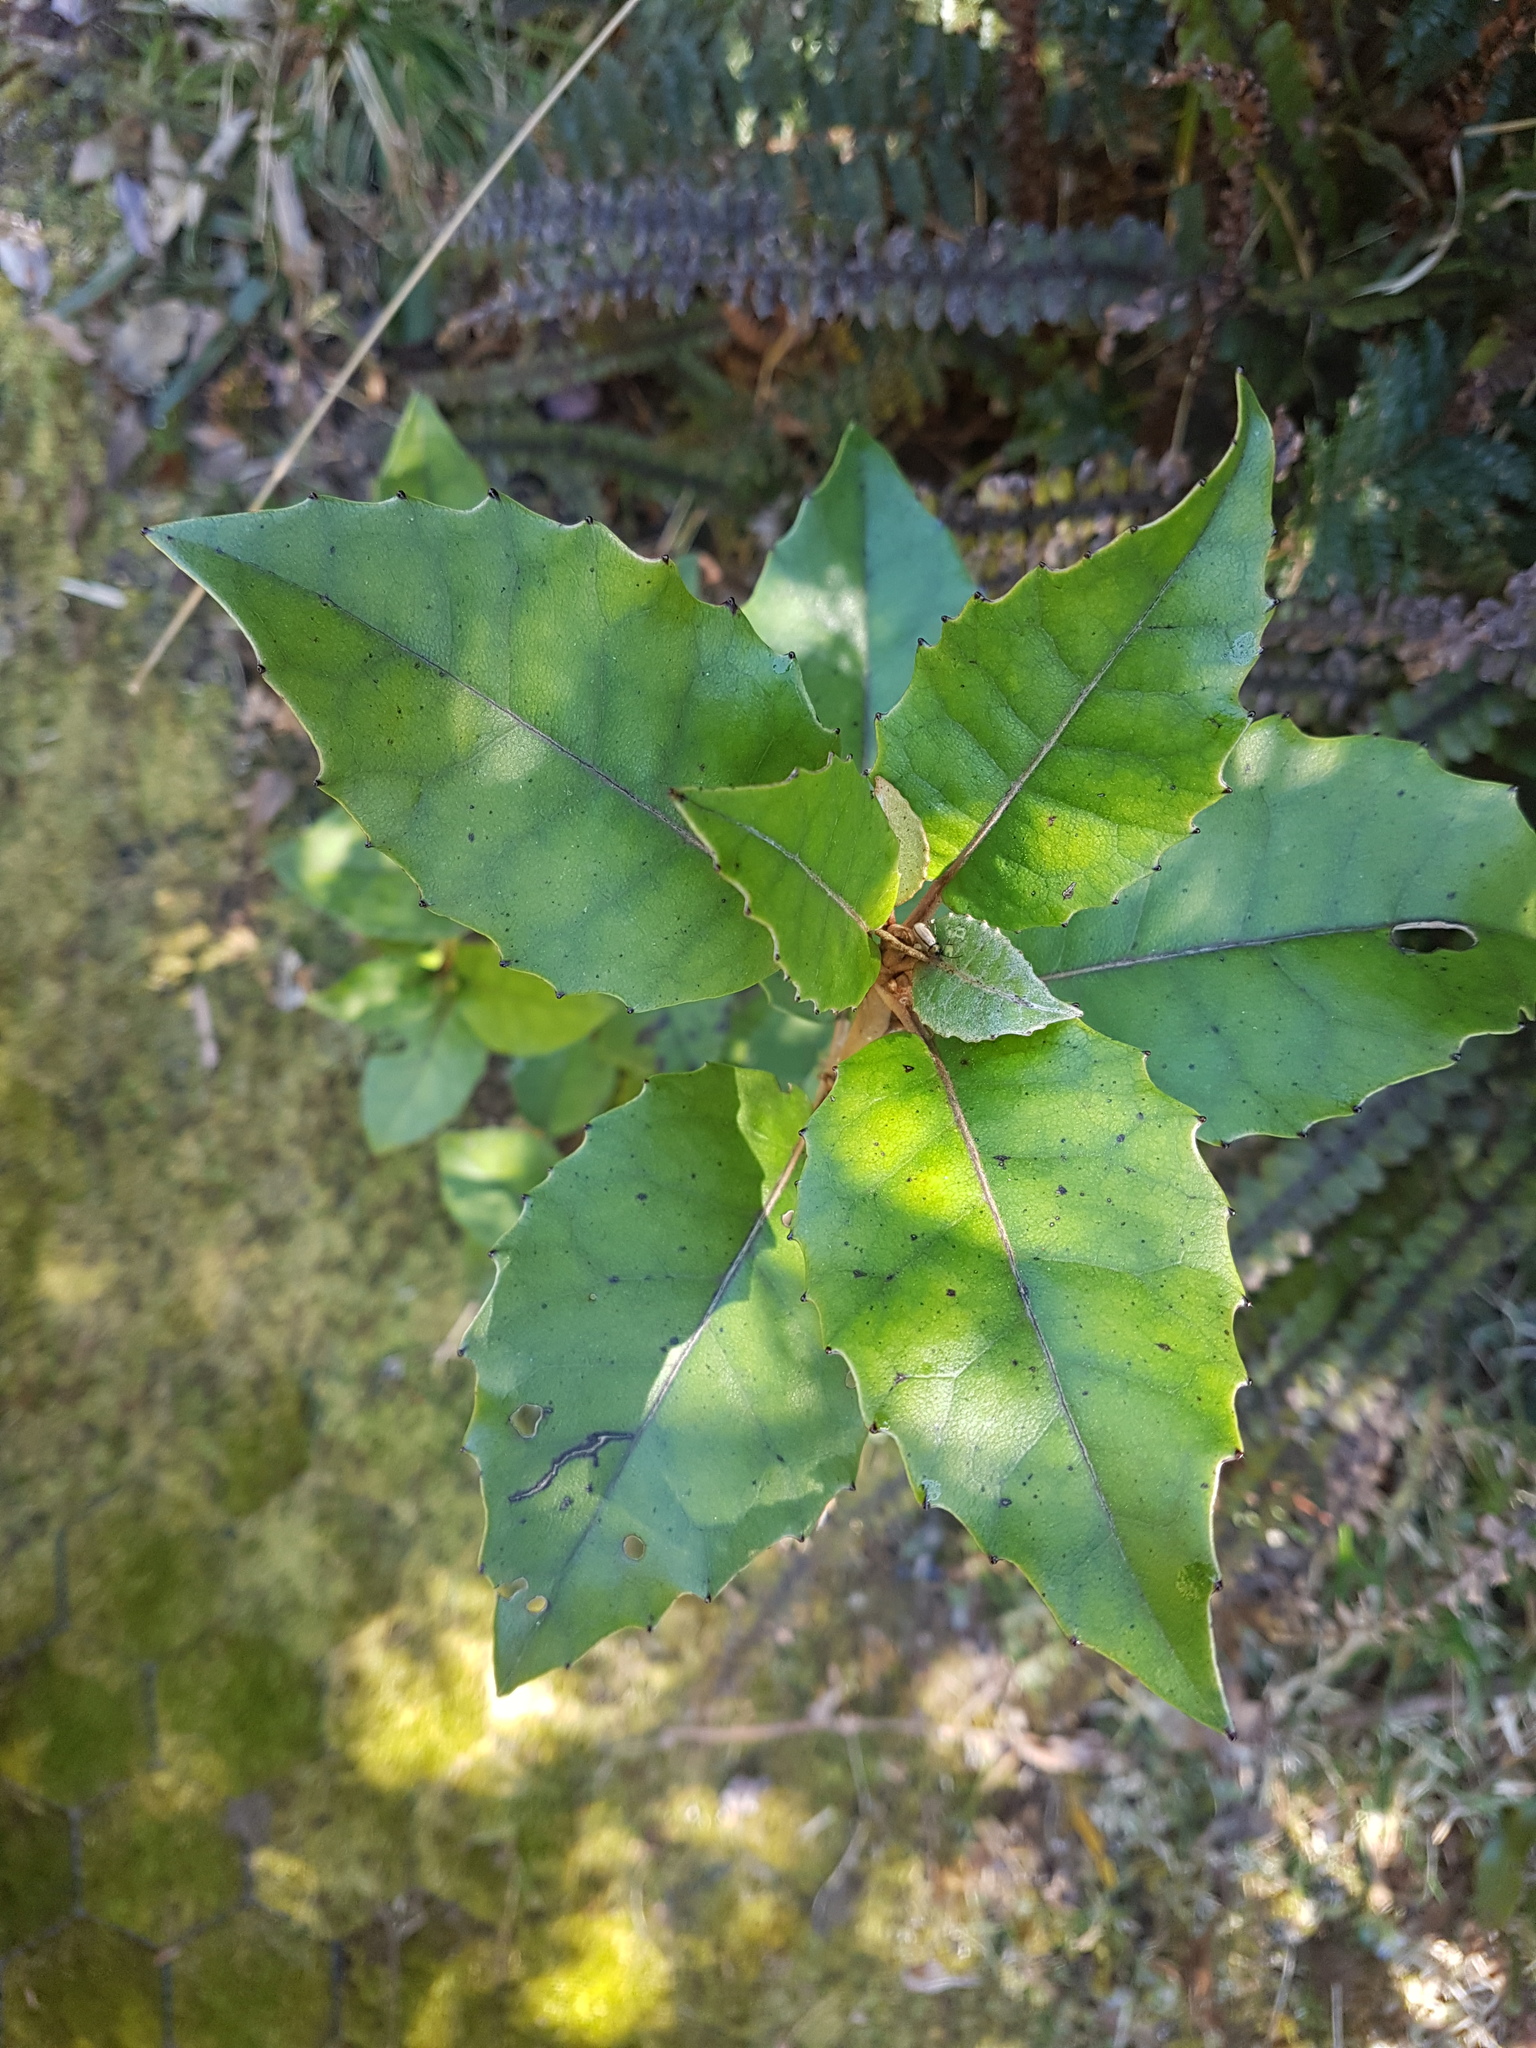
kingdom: Plantae
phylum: Tracheophyta
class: Magnoliopsida
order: Asterales
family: Asteraceae
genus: Olearia
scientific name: Olearia arborescens
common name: Glossy tree daisy
